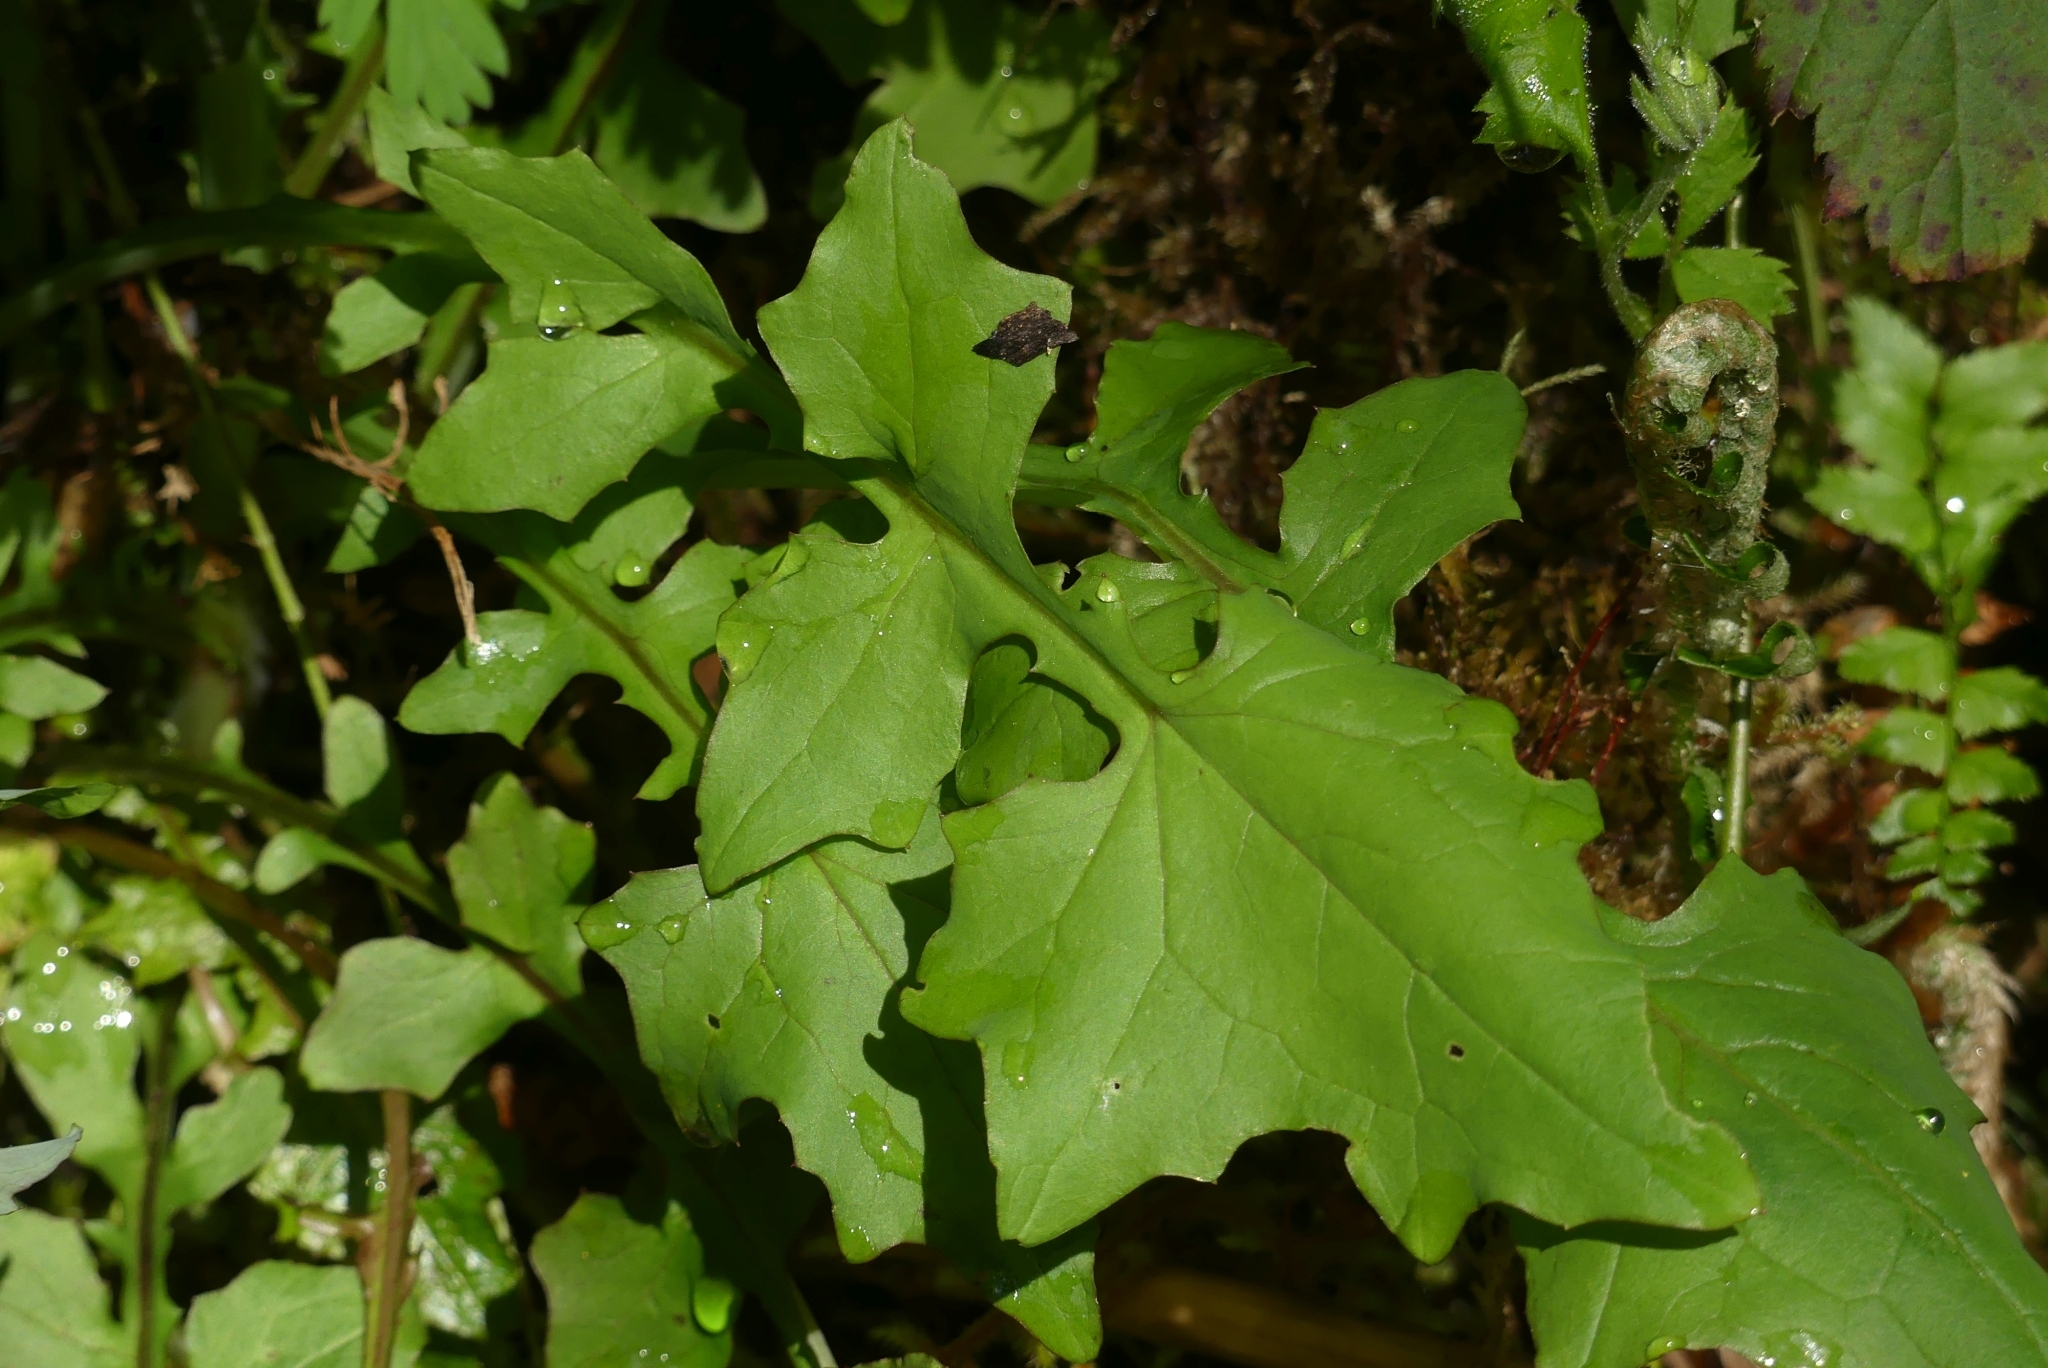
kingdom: Plantae
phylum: Tracheophyta
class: Magnoliopsida
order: Asterales
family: Asteraceae
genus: Mycelis
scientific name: Mycelis muralis
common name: Wall lettuce
